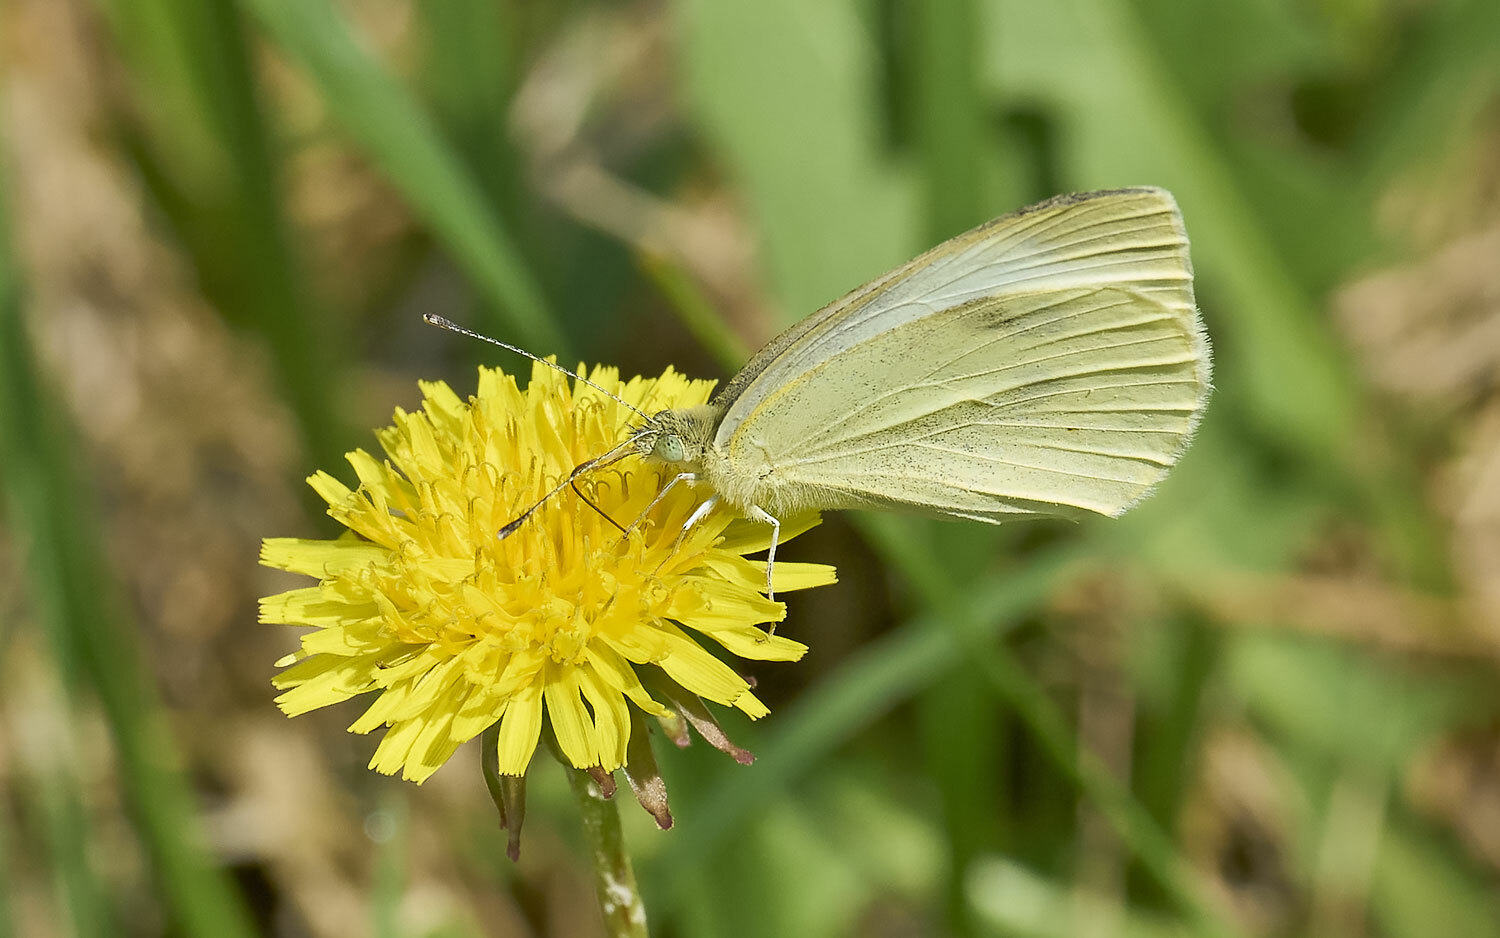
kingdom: Animalia
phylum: Arthropoda
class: Insecta
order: Lepidoptera
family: Pieridae
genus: Pieris
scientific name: Pieris rapae
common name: Small white
